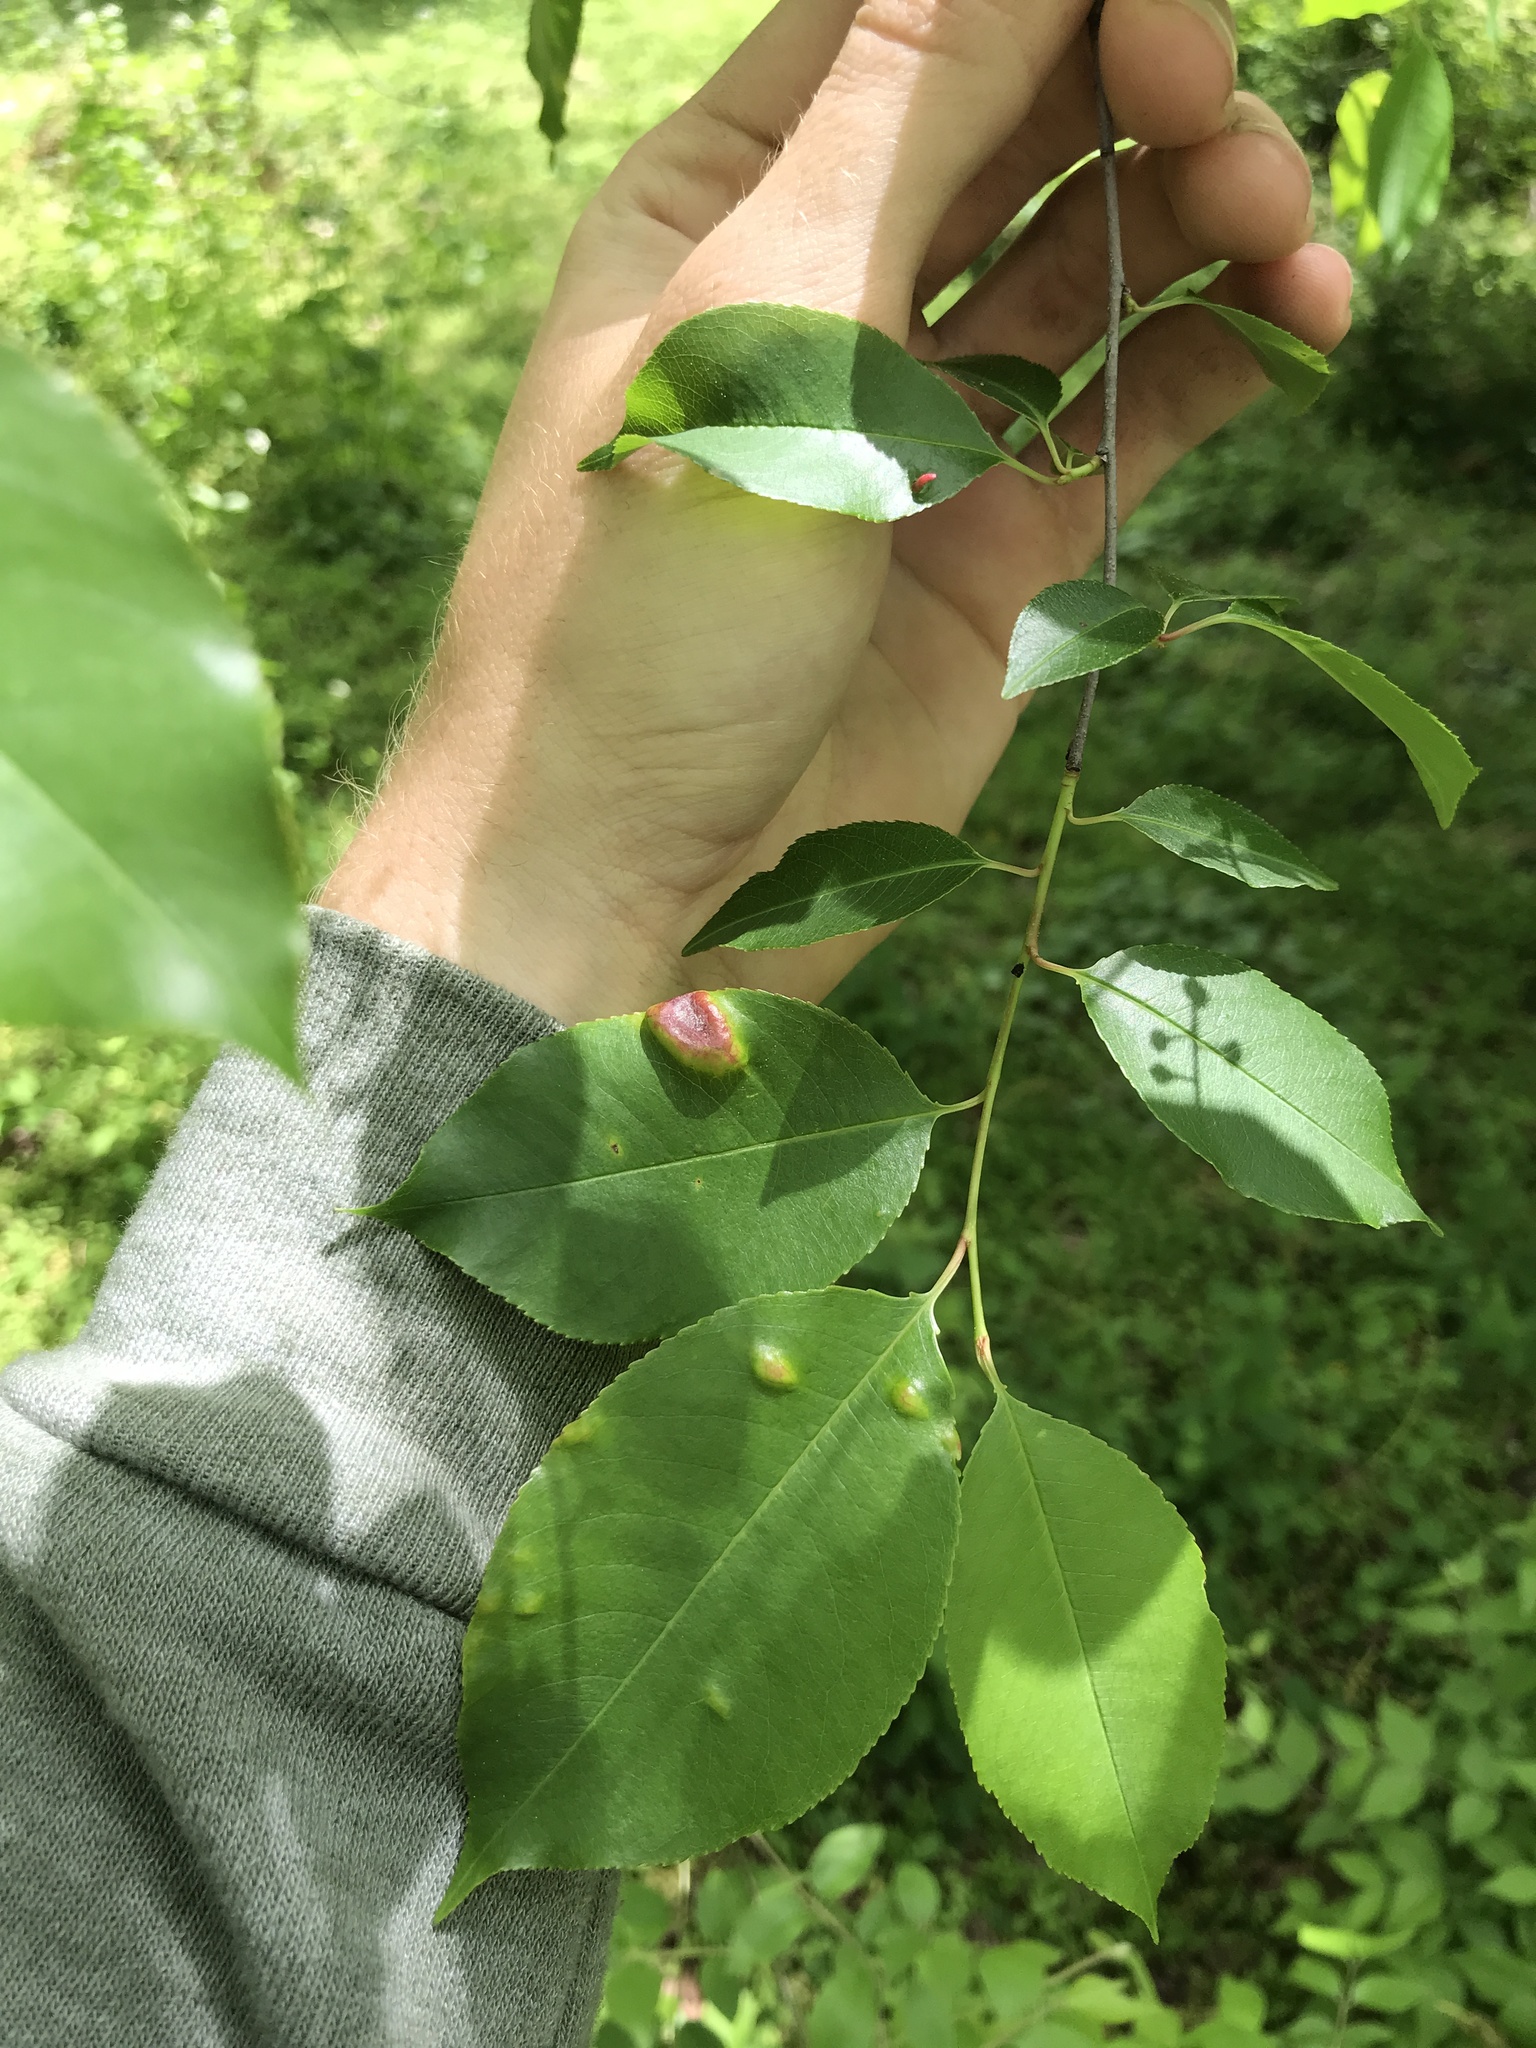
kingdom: Fungi
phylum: Ascomycota
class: Taphrinomycetes
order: Taphrinales
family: Taphrinaceae
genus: Taphrina
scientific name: Taphrina farlowii
